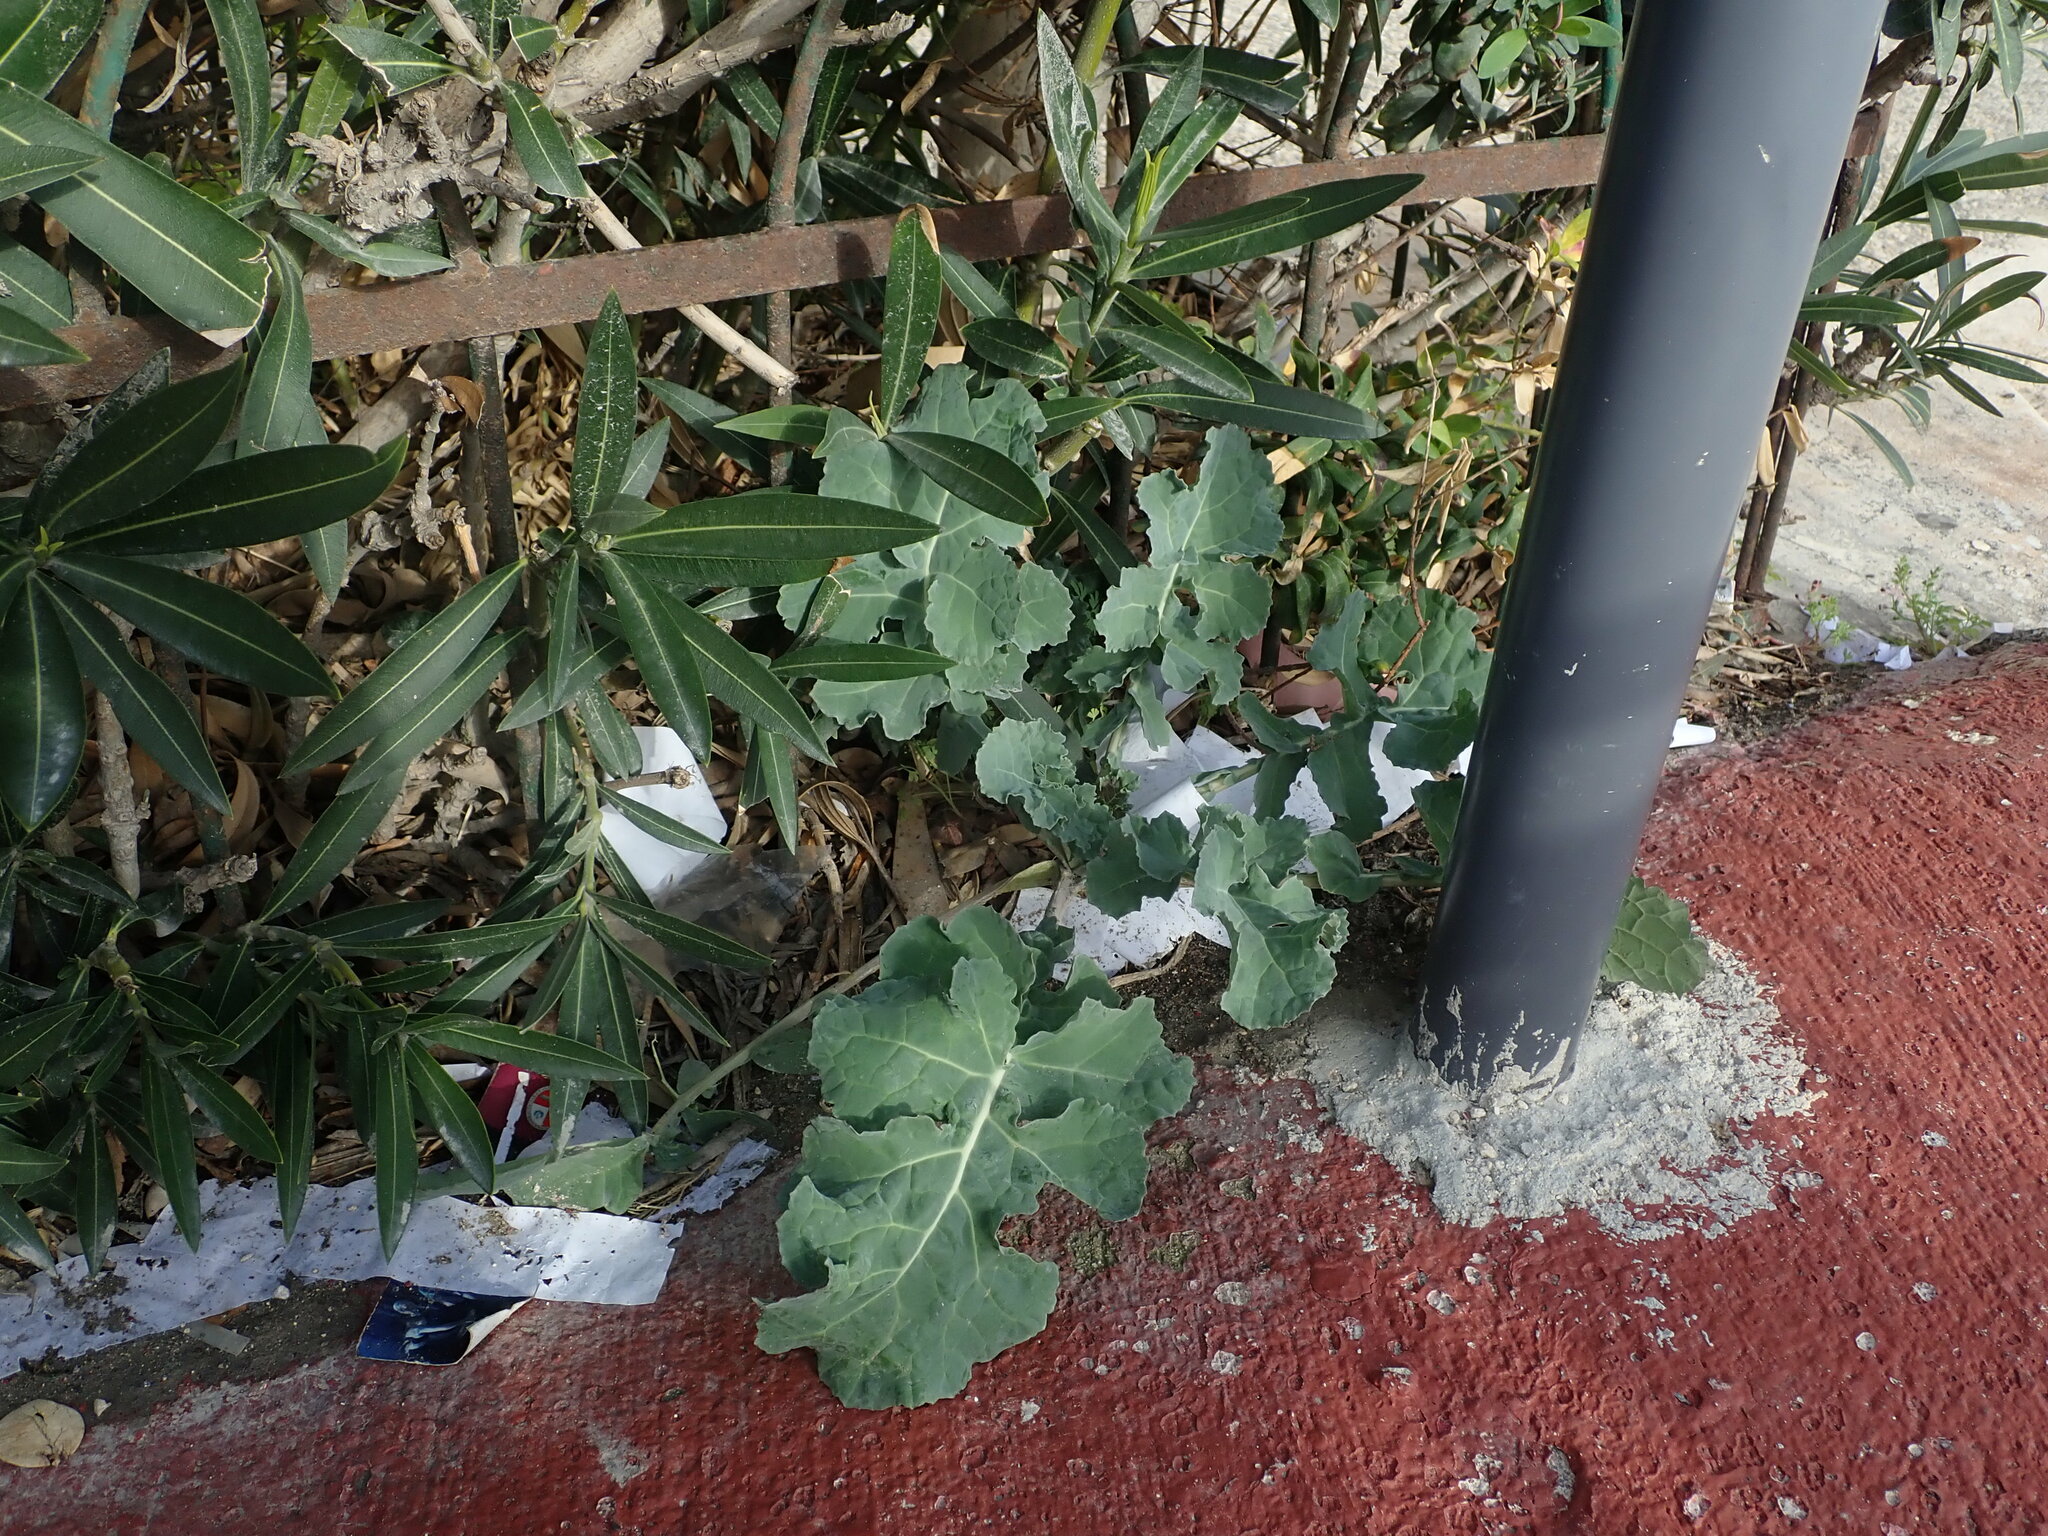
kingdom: Plantae
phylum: Tracheophyta
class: Magnoliopsida
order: Brassicales
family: Brassicaceae
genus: Brassica
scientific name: Brassica oleracea
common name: Cabbage
